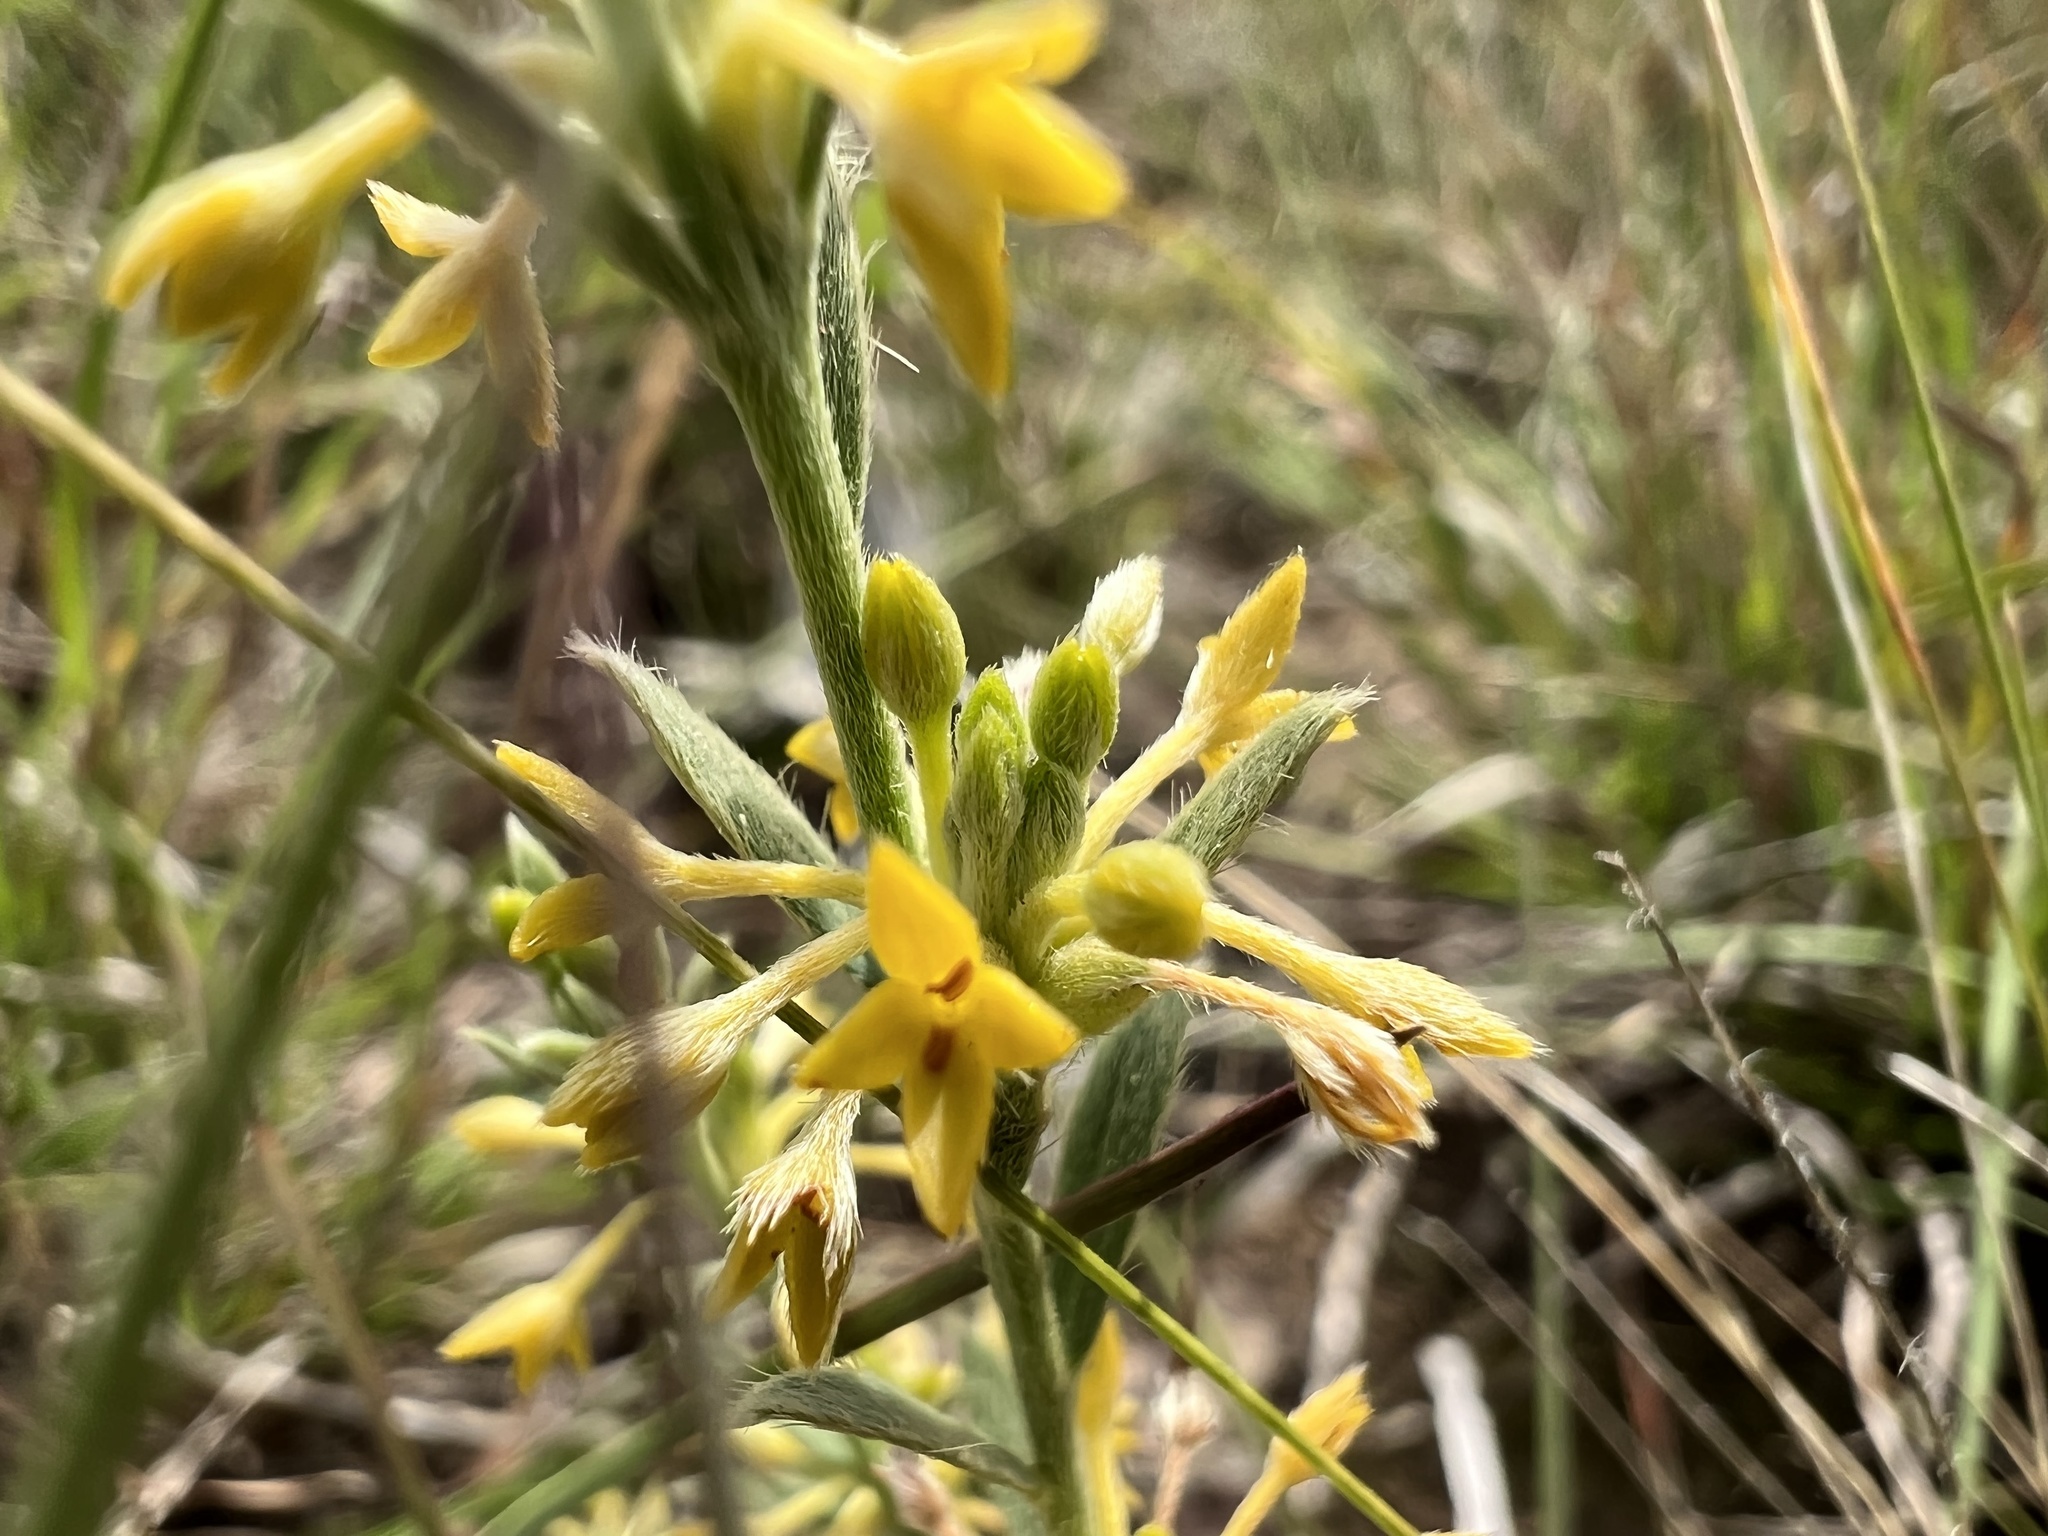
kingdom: Plantae
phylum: Tracheophyta
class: Magnoliopsida
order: Malvales
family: Thymelaeaceae
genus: Pimelea
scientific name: Pimelea curviflora
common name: Curved riceflower
